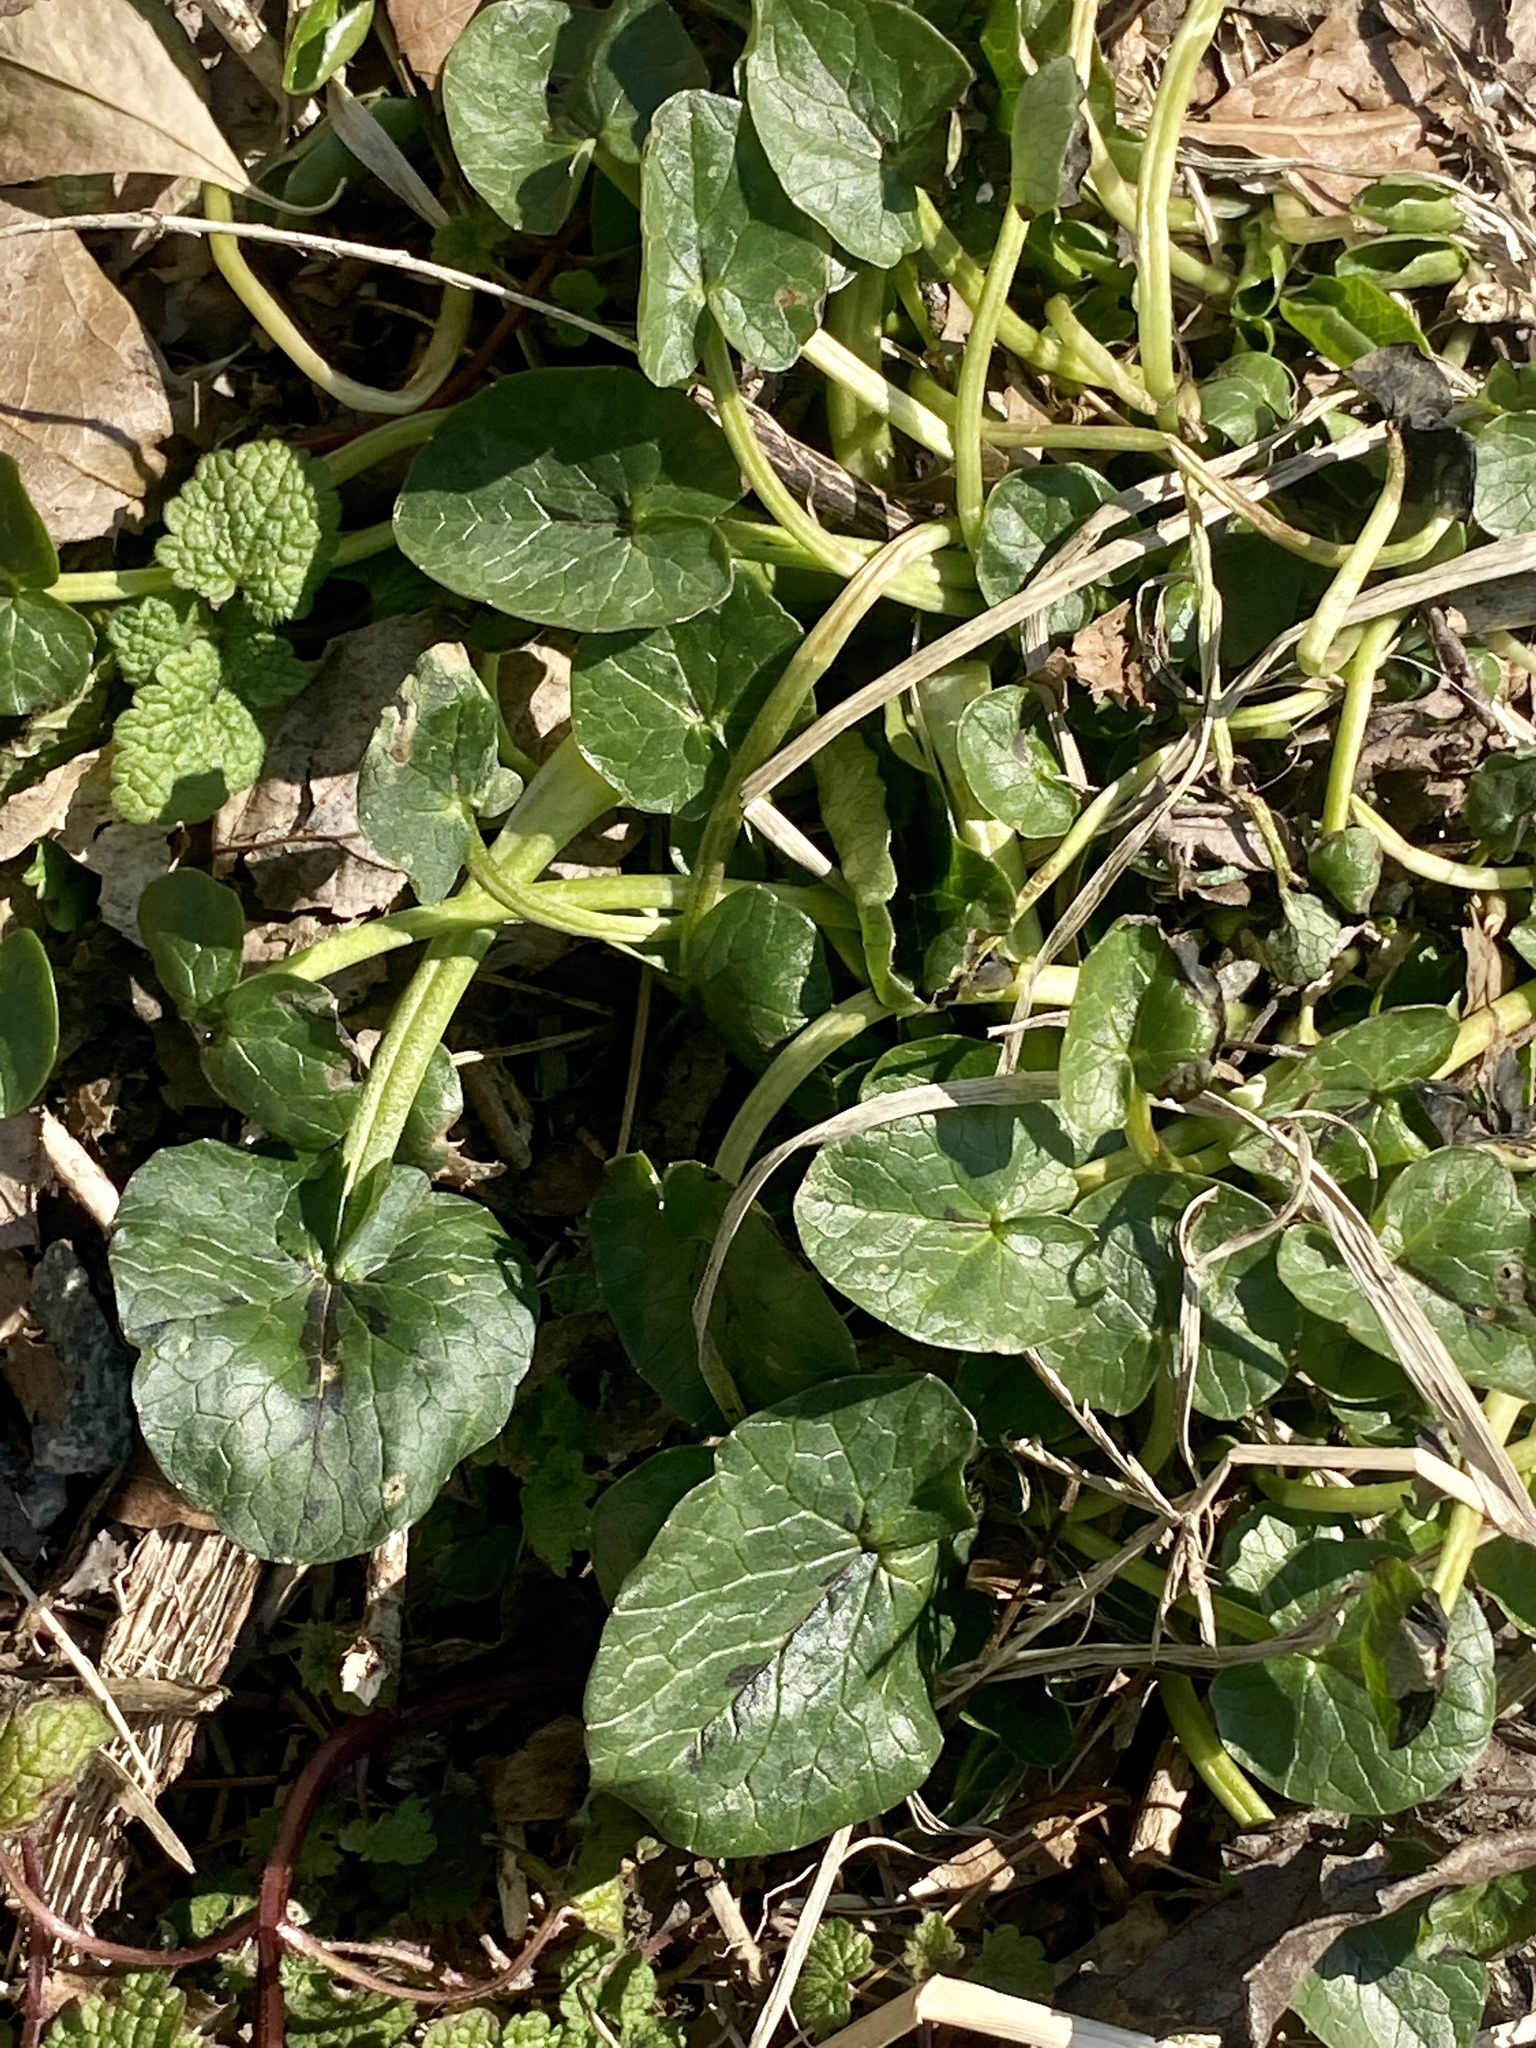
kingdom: Plantae
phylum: Tracheophyta
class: Magnoliopsida
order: Ranunculales
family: Ranunculaceae
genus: Ficaria
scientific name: Ficaria verna
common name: Lesser celandine
